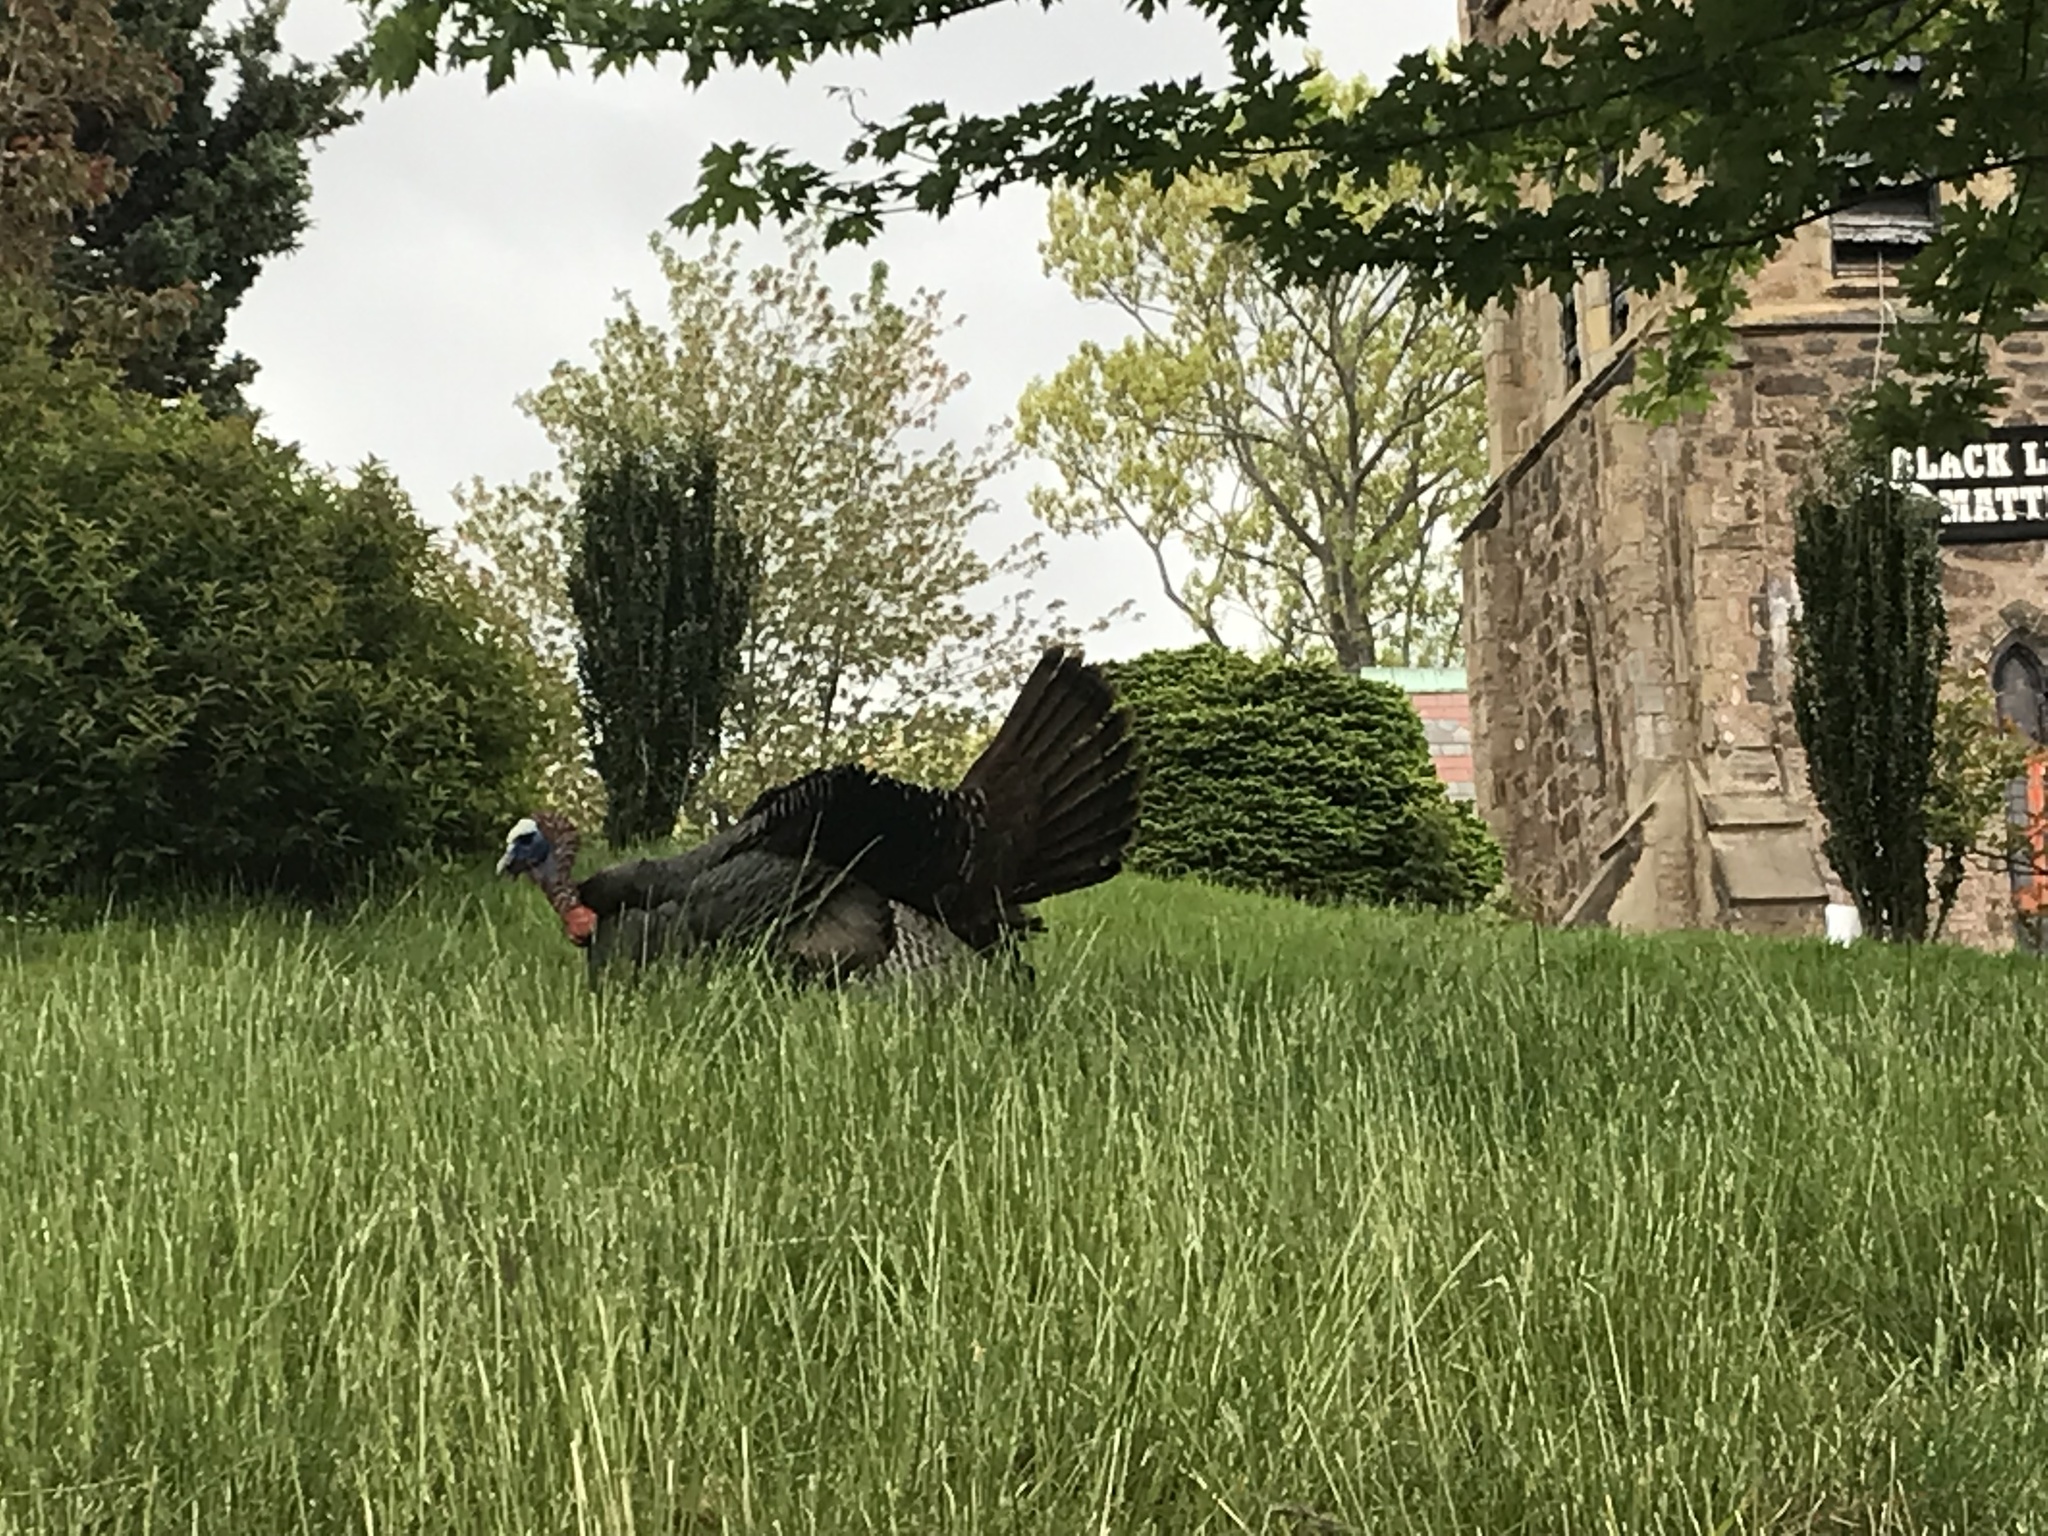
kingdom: Animalia
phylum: Chordata
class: Aves
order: Galliformes
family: Phasianidae
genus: Meleagris
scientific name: Meleagris gallopavo
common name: Wild turkey
